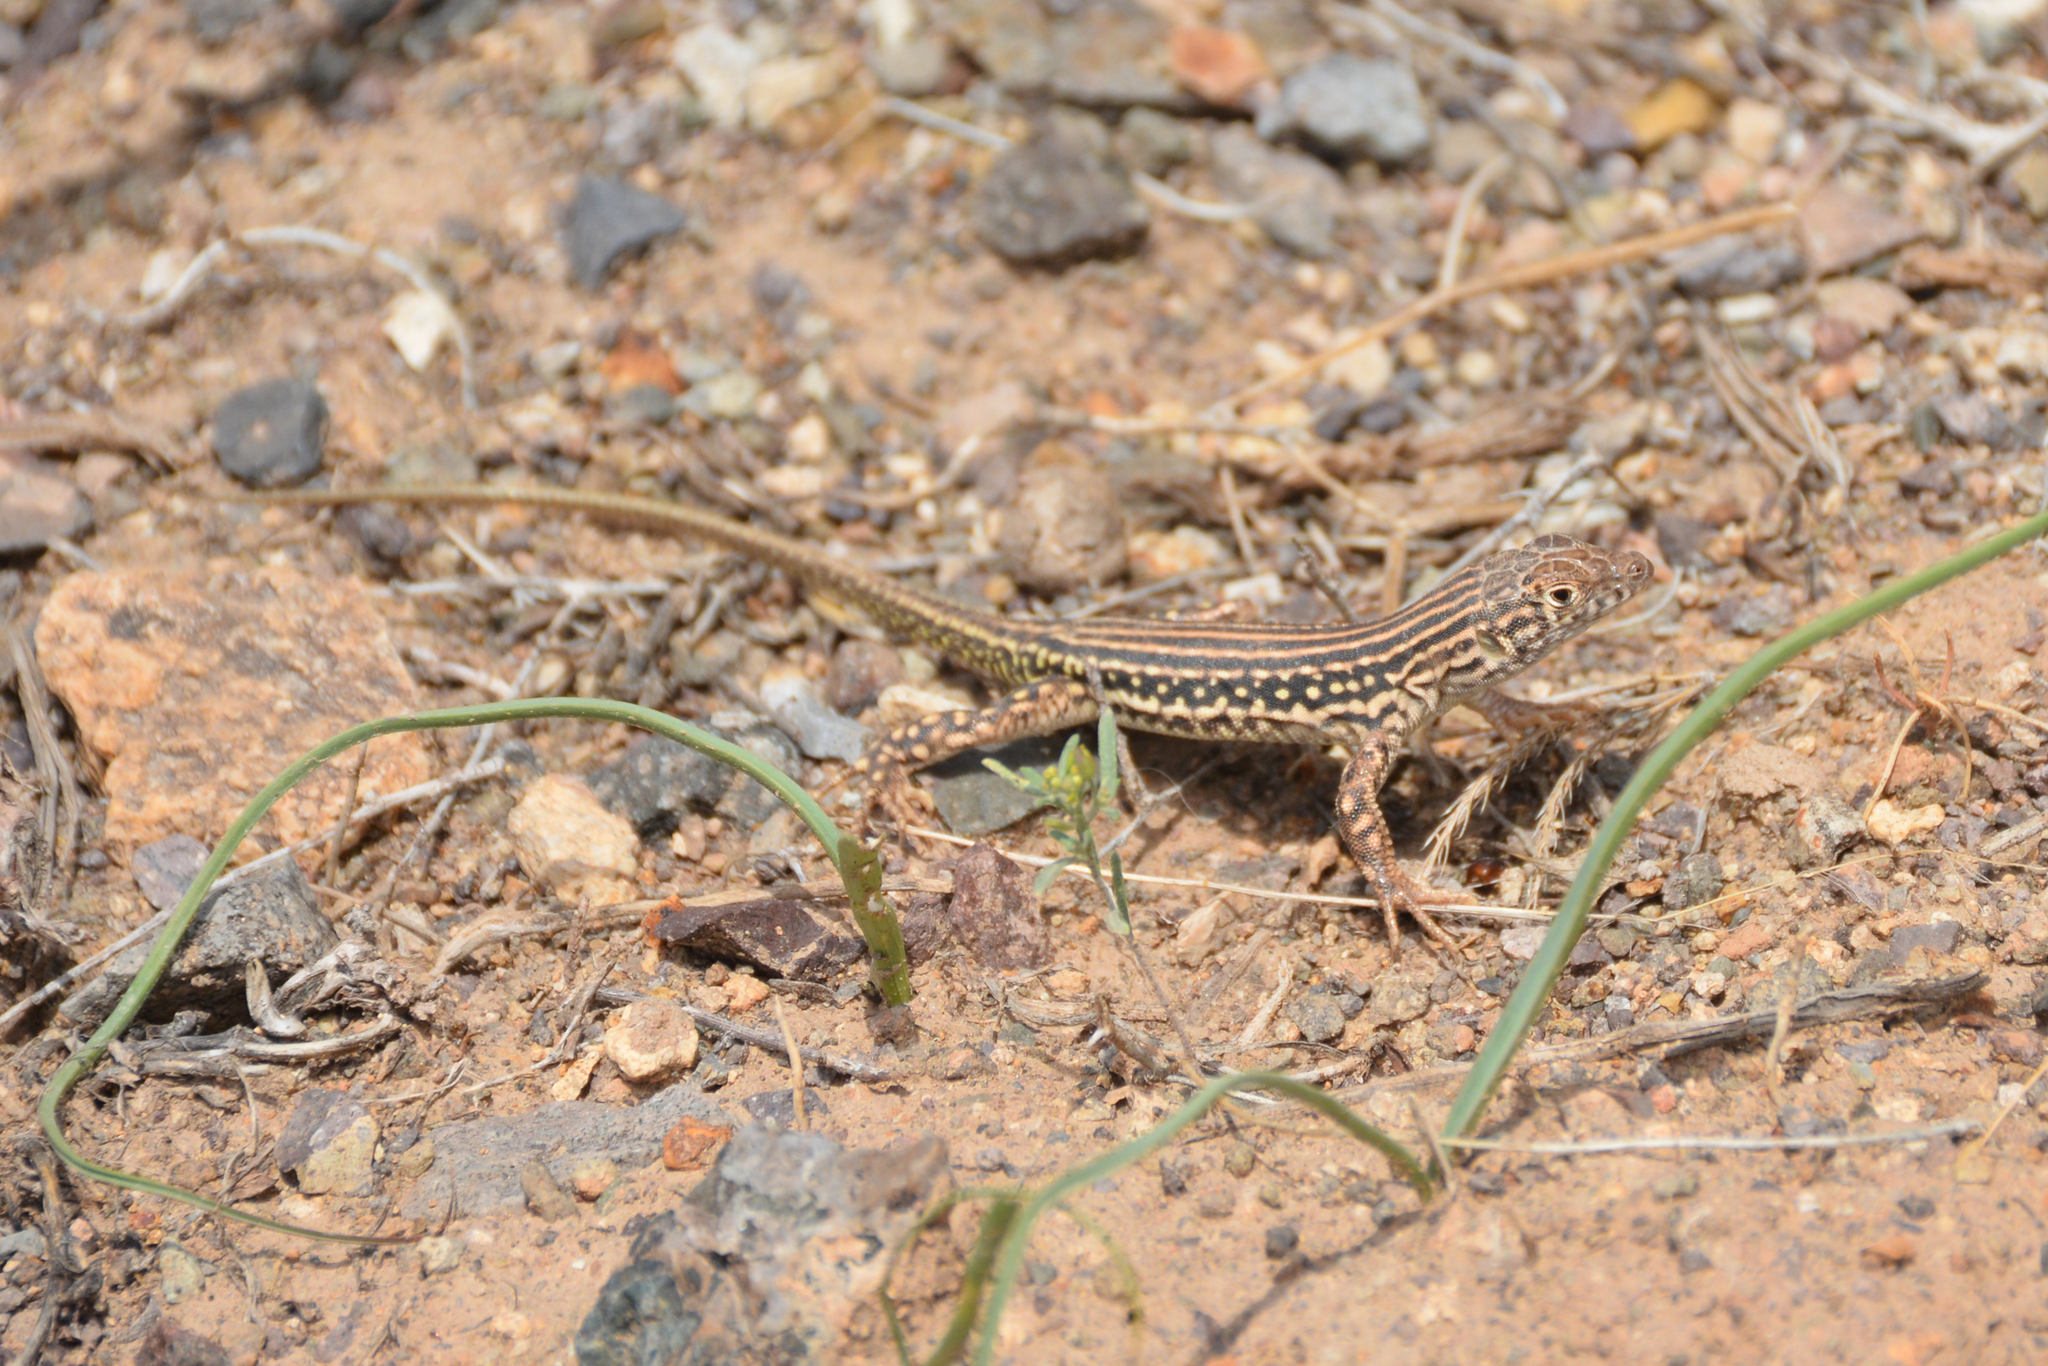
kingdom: Animalia
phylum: Chordata
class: Squamata
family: Lacertidae
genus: Eremias
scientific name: Eremias fahimii
